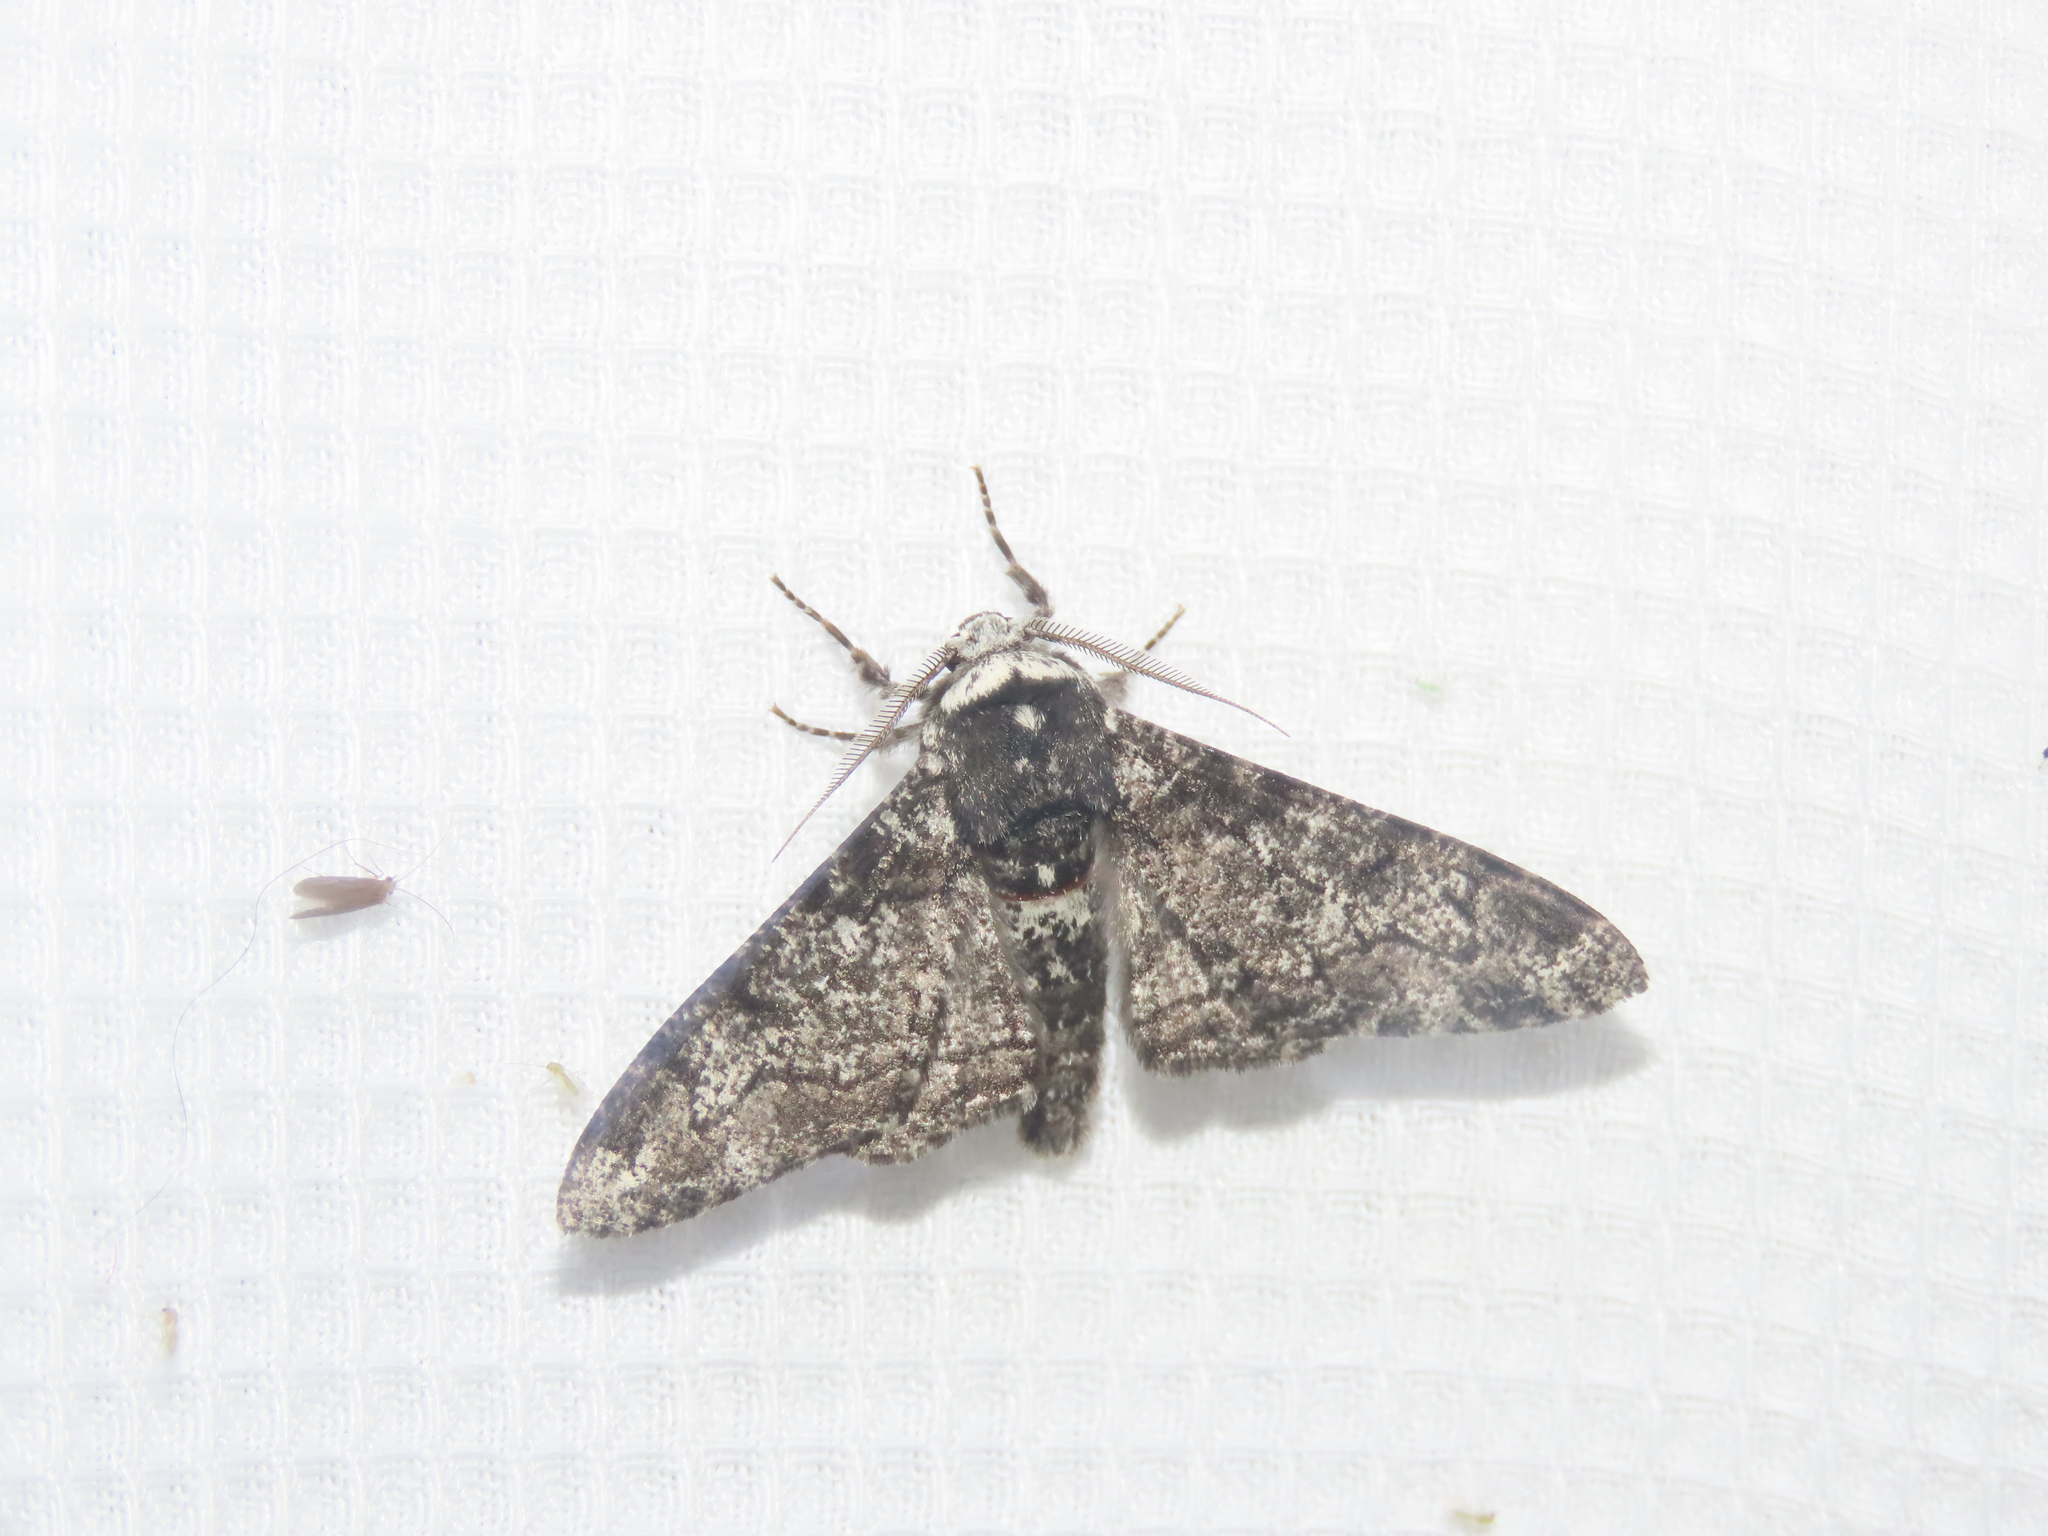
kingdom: Animalia
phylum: Arthropoda
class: Insecta
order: Lepidoptera
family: Geometridae
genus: Biston
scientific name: Biston betularia
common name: Peppered moth
